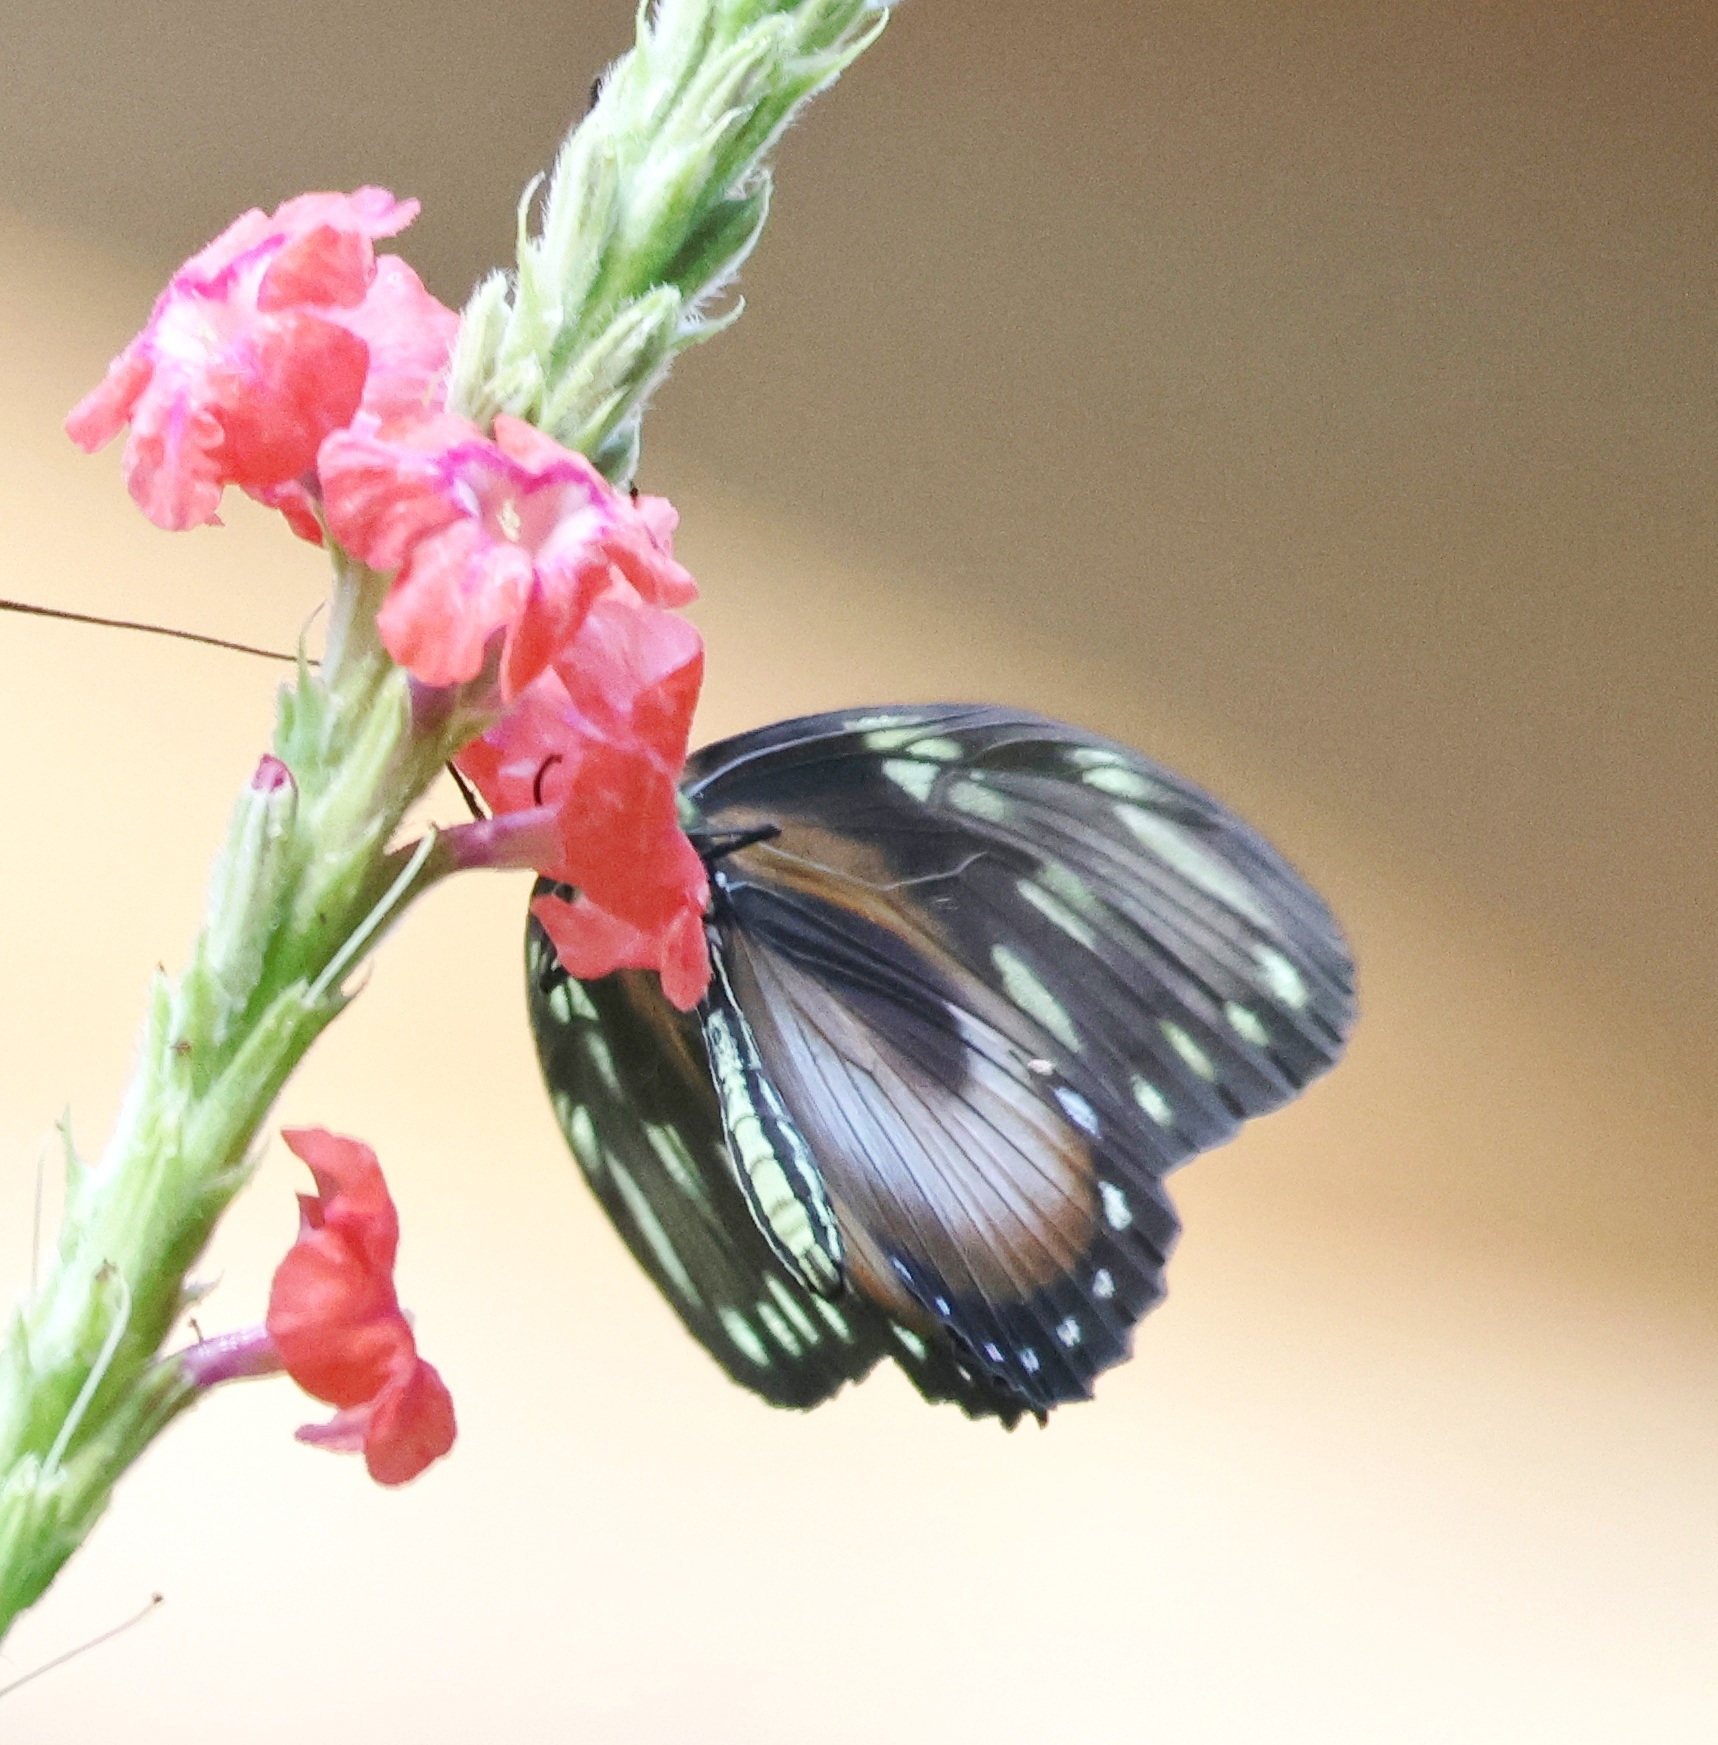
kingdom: Animalia
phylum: Arthropoda
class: Insecta
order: Lepidoptera
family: Nymphalidae
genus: Heliconius
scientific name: Heliconius hecalesia
